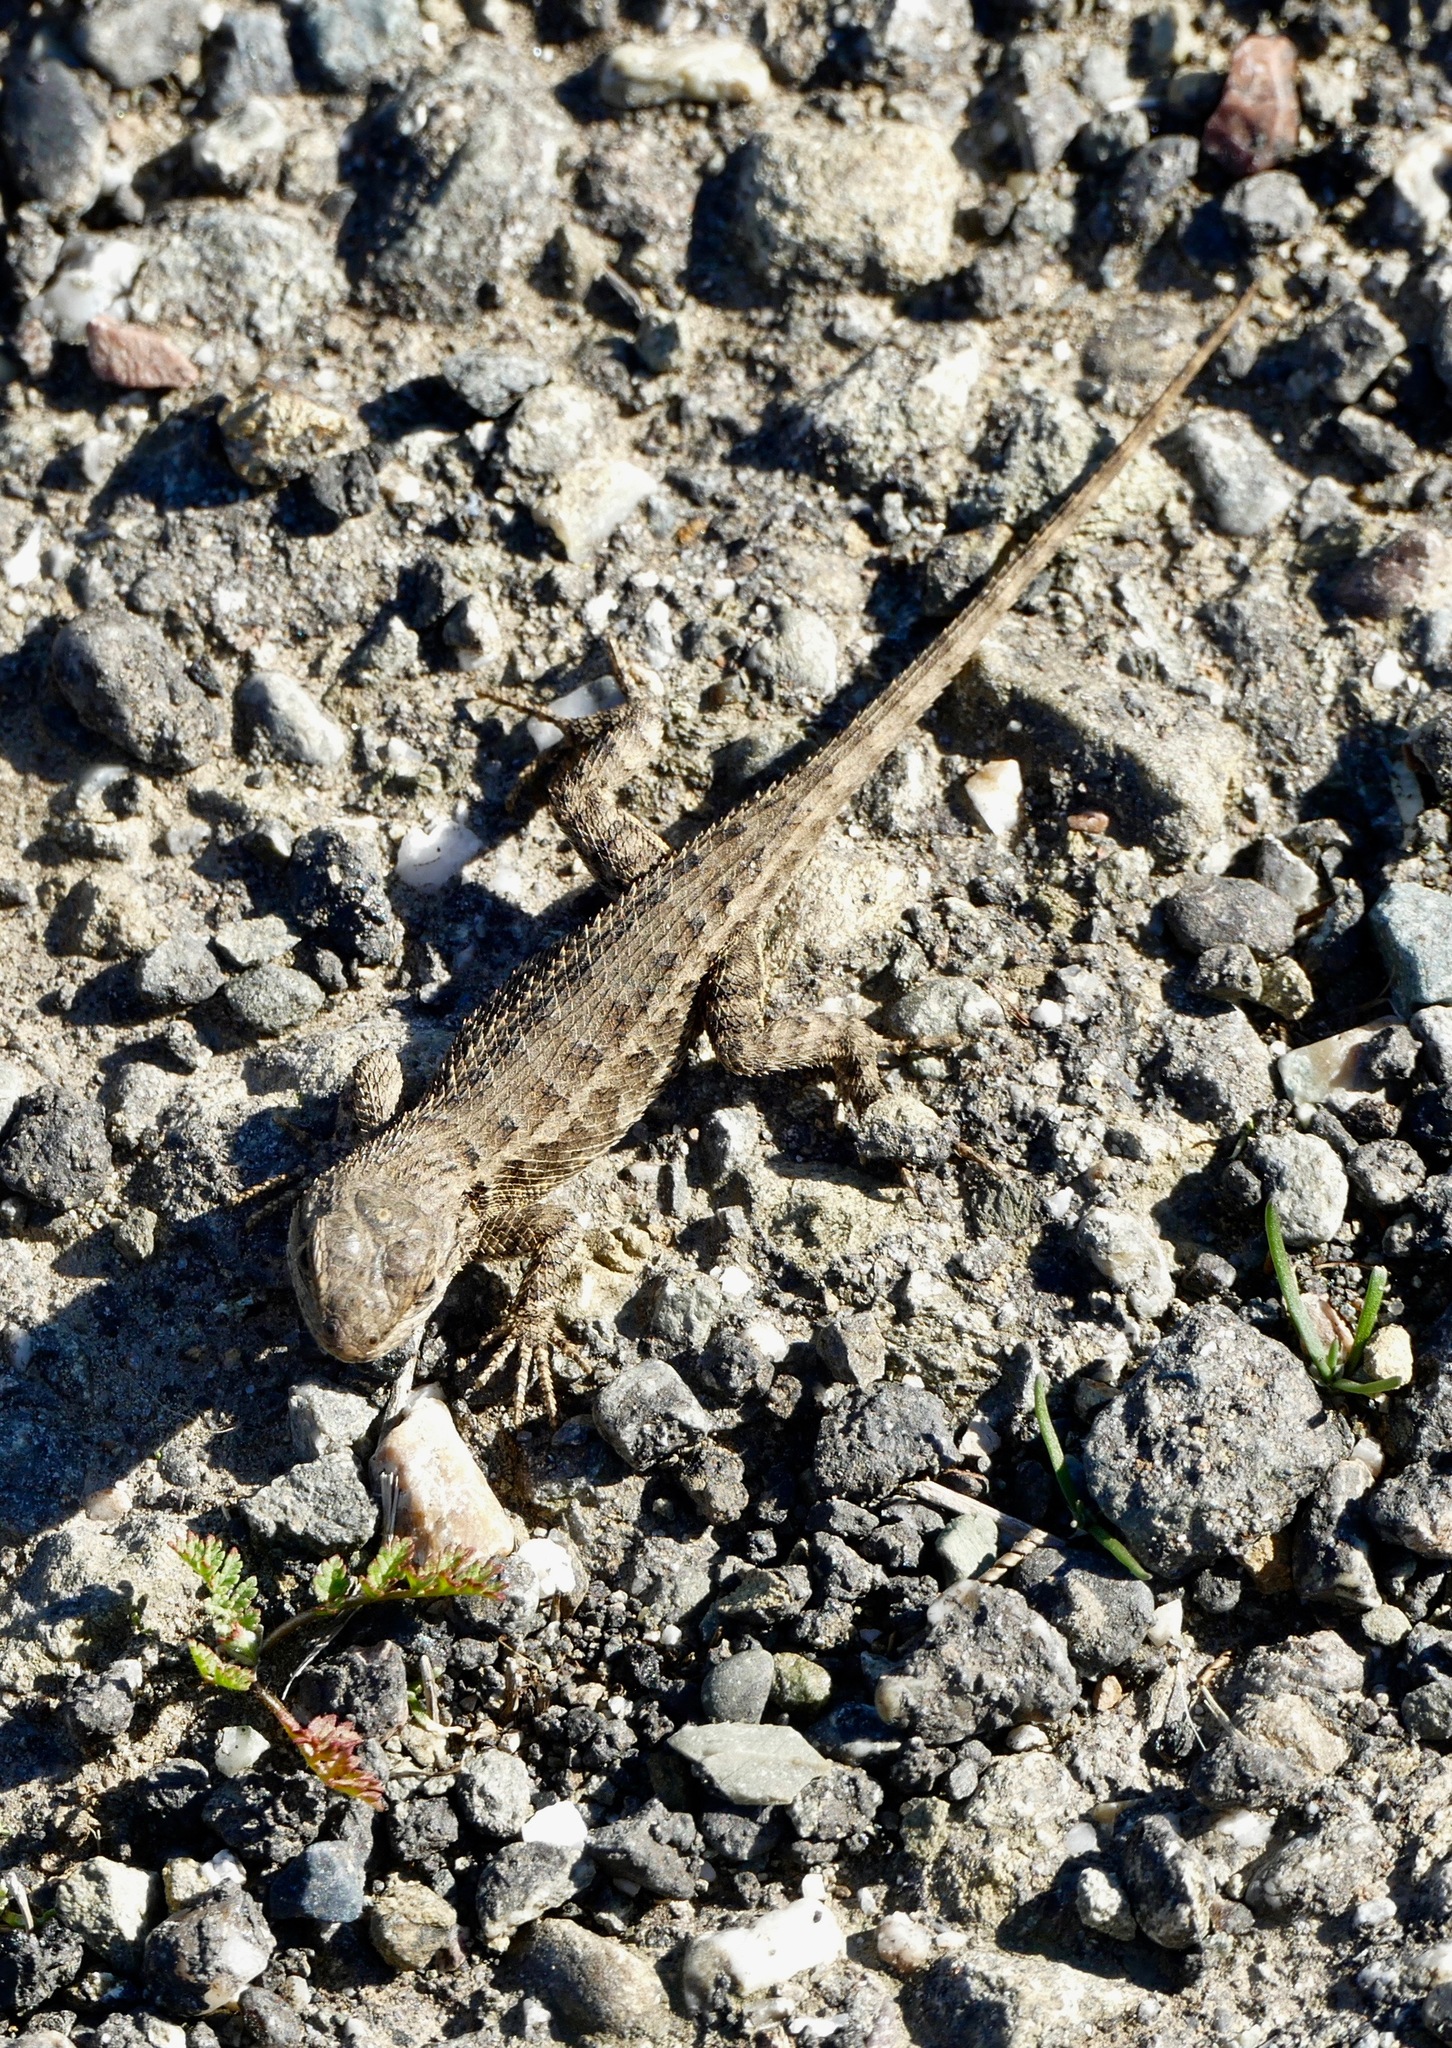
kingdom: Animalia
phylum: Chordata
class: Squamata
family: Phrynosomatidae
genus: Sceloporus
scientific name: Sceloporus occidentalis
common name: Western fence lizard
